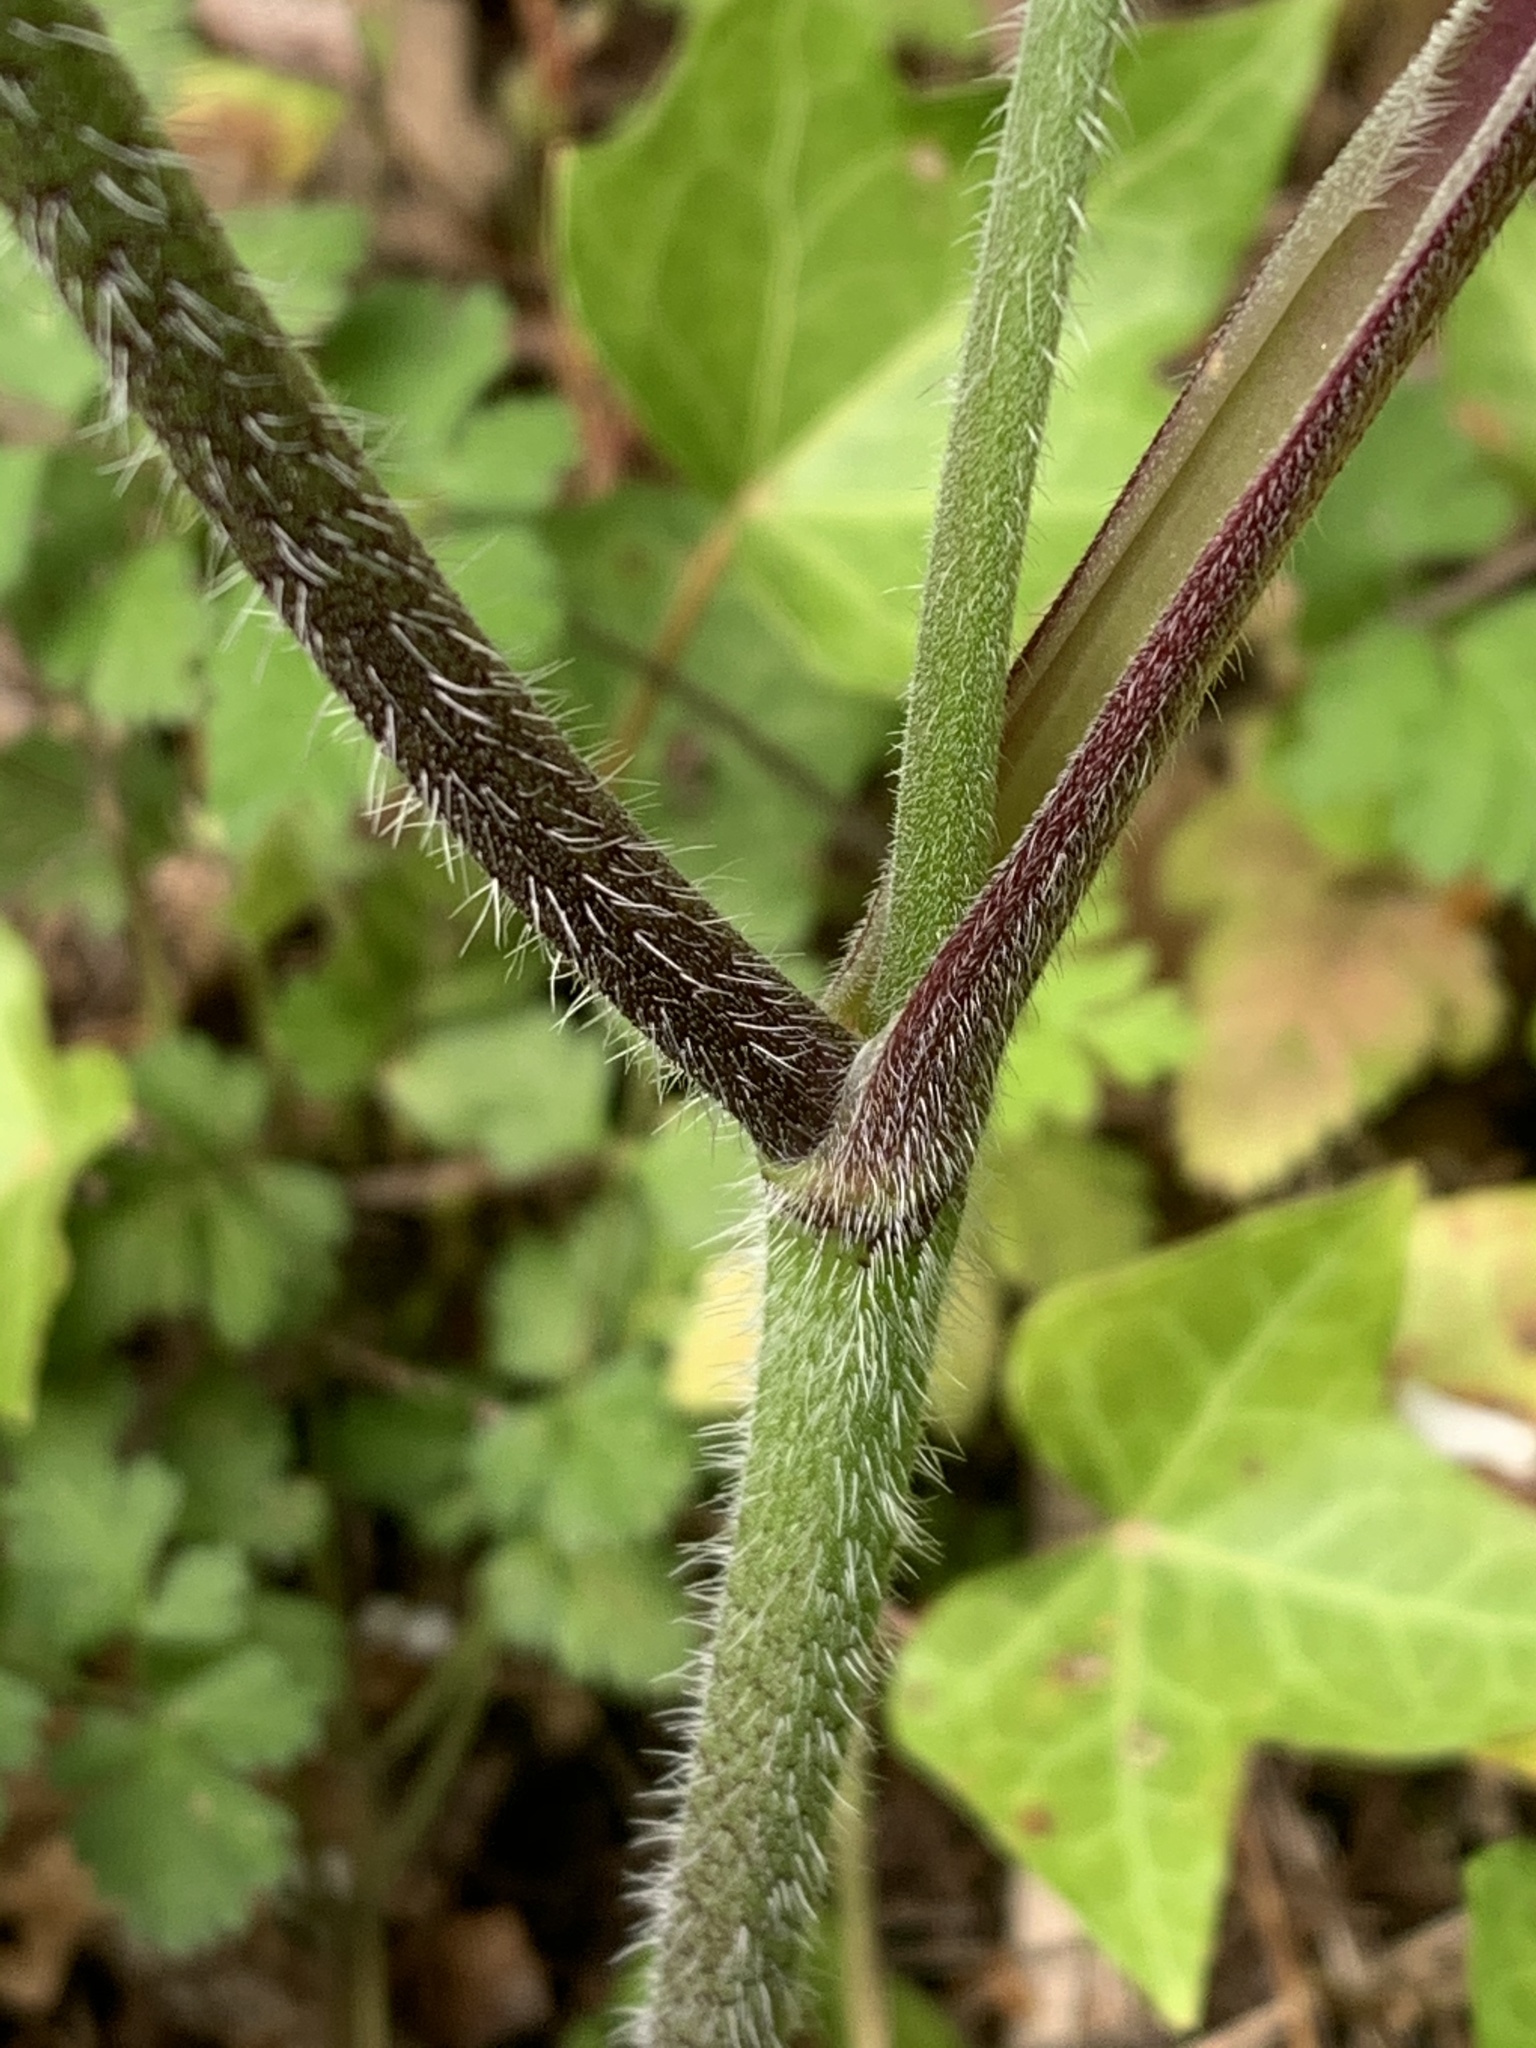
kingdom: Plantae
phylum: Tracheophyta
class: Magnoliopsida
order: Apiales
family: Apiaceae
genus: Chaerophyllum
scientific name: Chaerophyllum temulum
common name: Rough chervil
